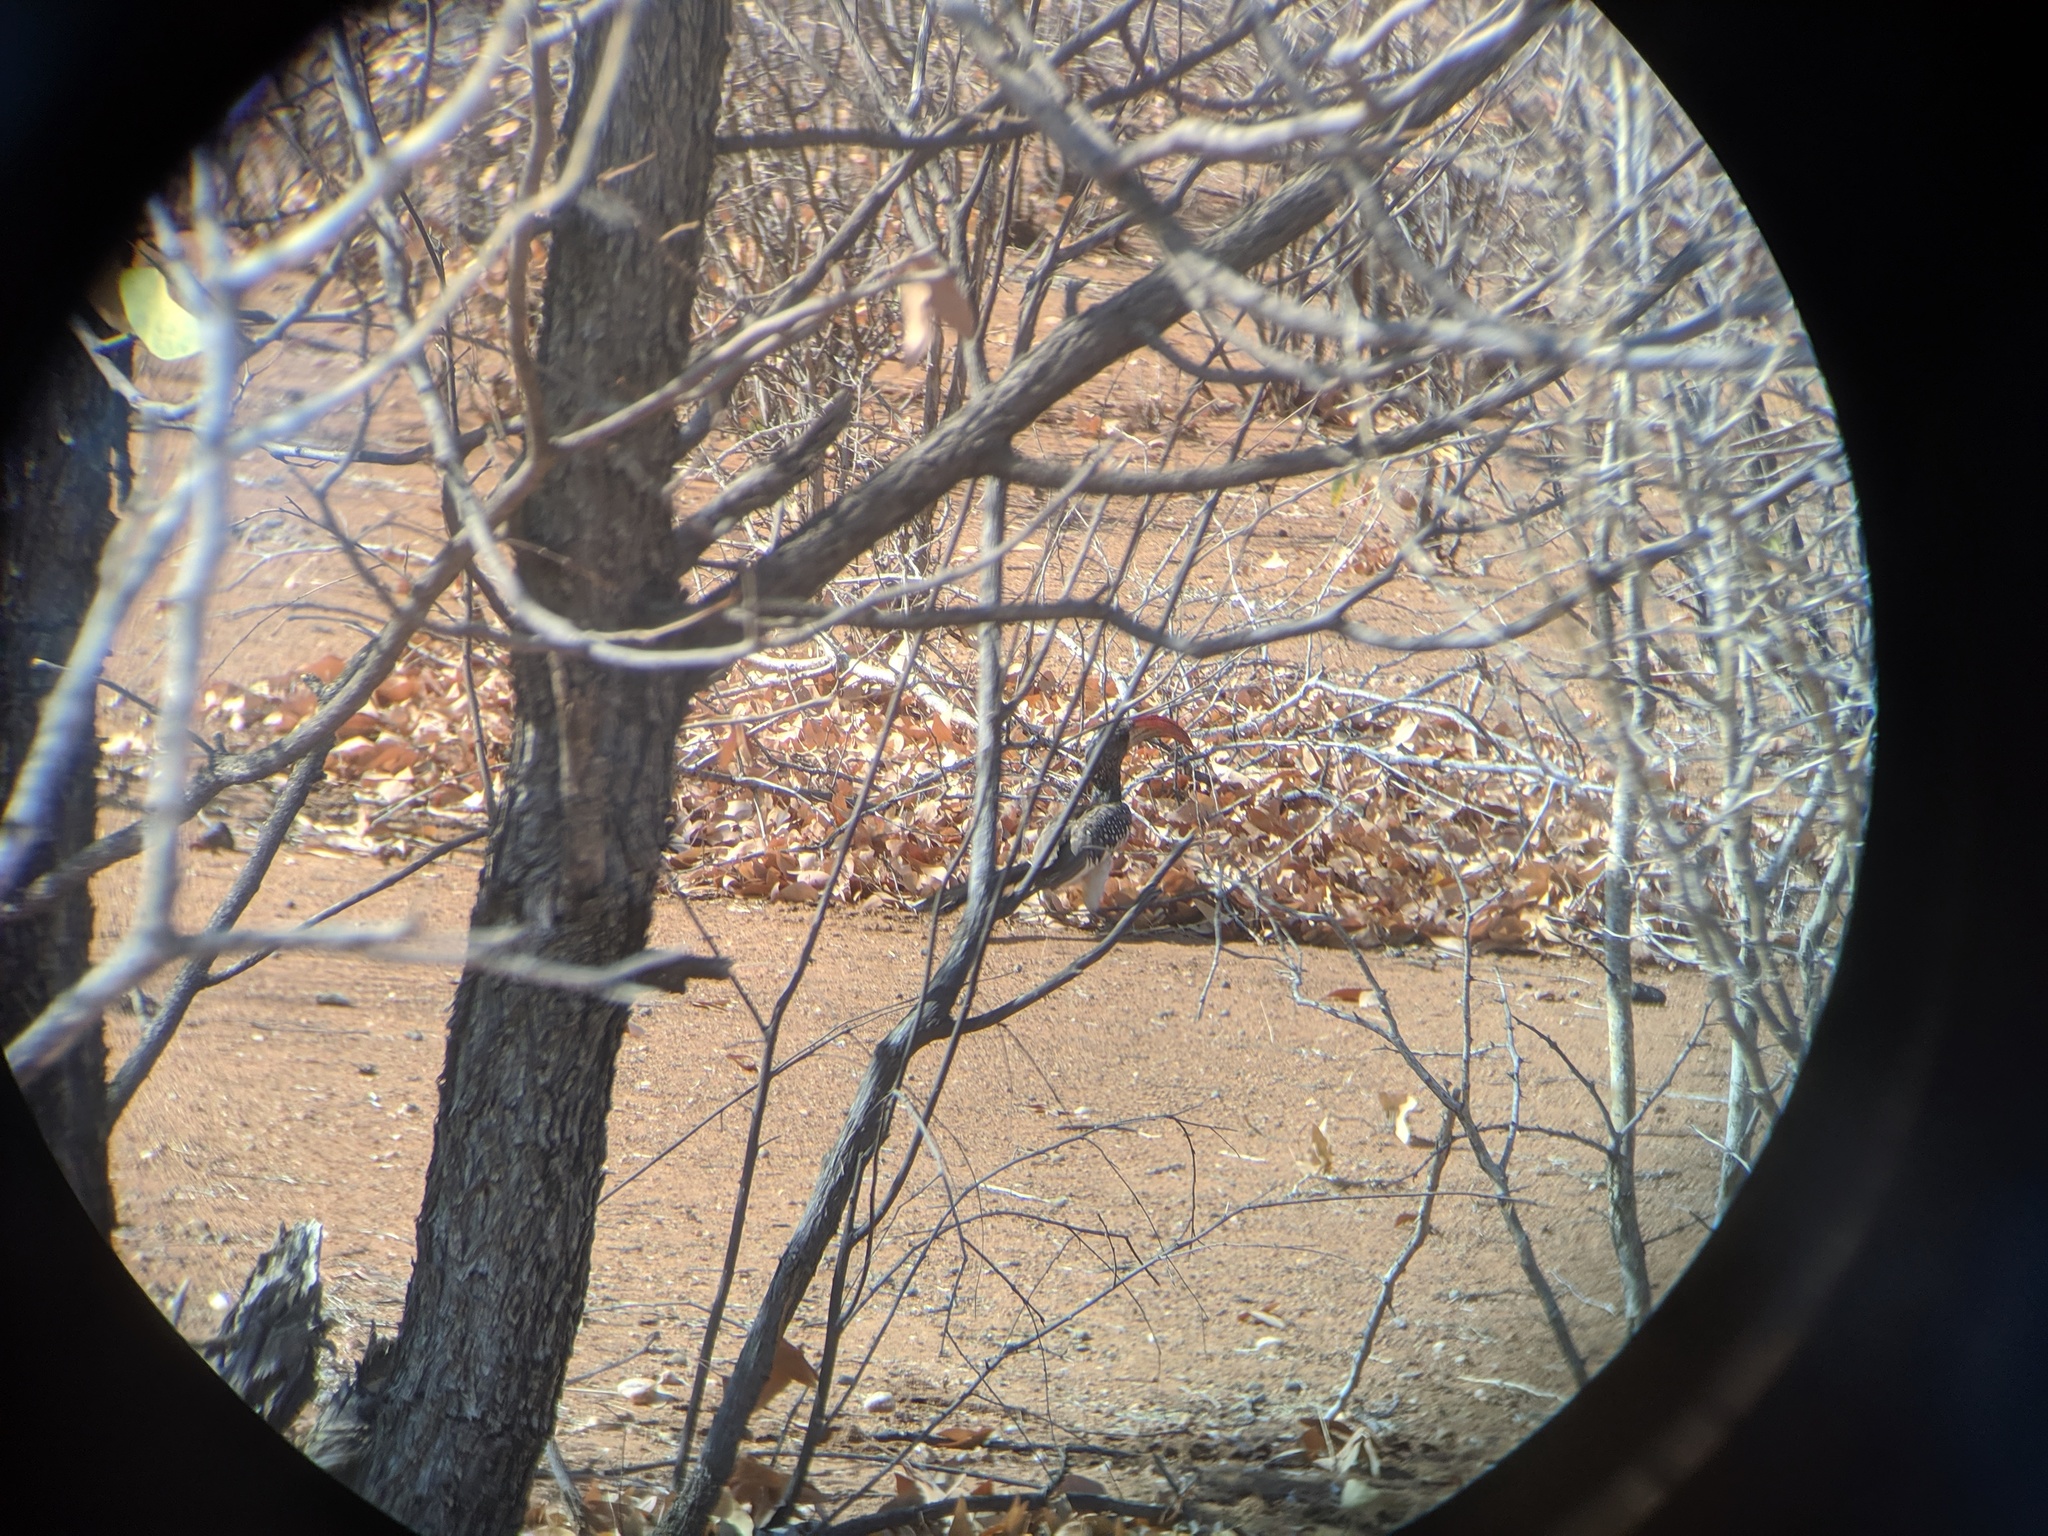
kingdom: Animalia
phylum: Chordata
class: Aves
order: Bucerotiformes
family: Bucerotidae
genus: Tockus
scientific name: Tockus monteiri
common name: Monteiro's hornbill
